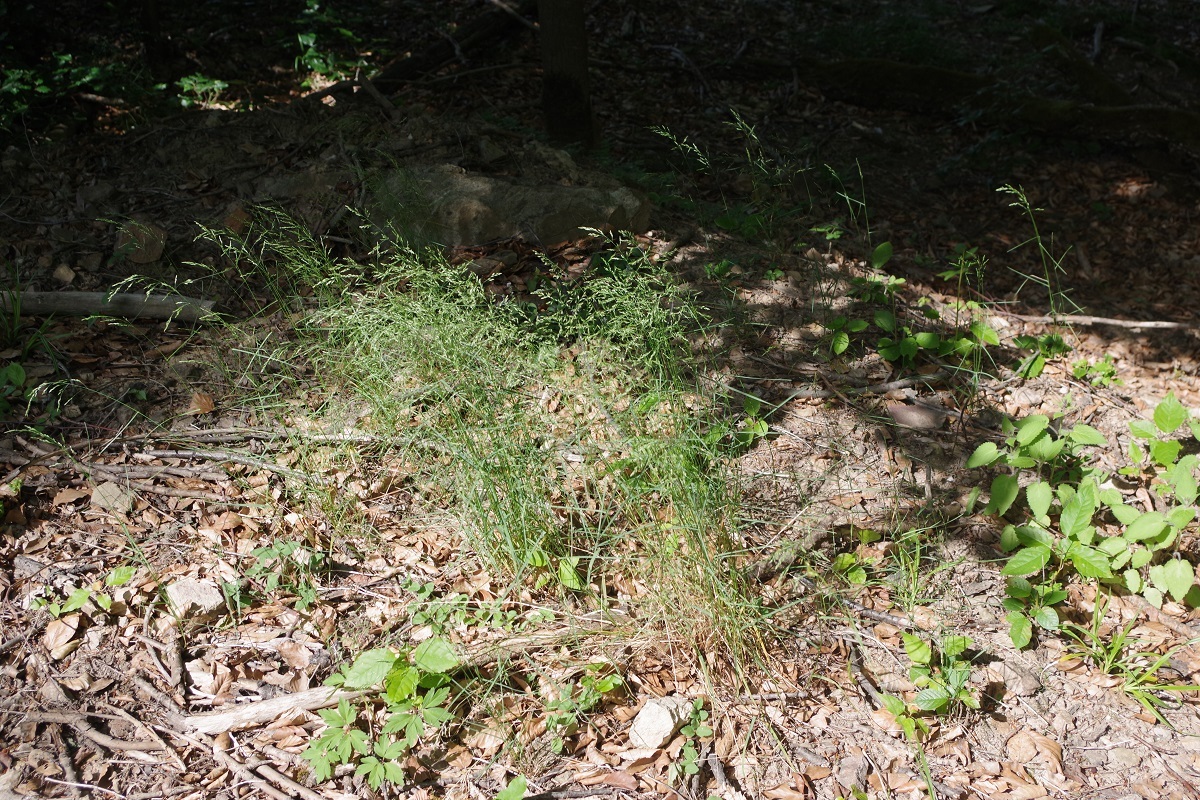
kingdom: Plantae
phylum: Tracheophyta
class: Liliopsida
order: Poales
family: Poaceae
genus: Poa
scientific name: Poa nemoralis
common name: Wood bluegrass
